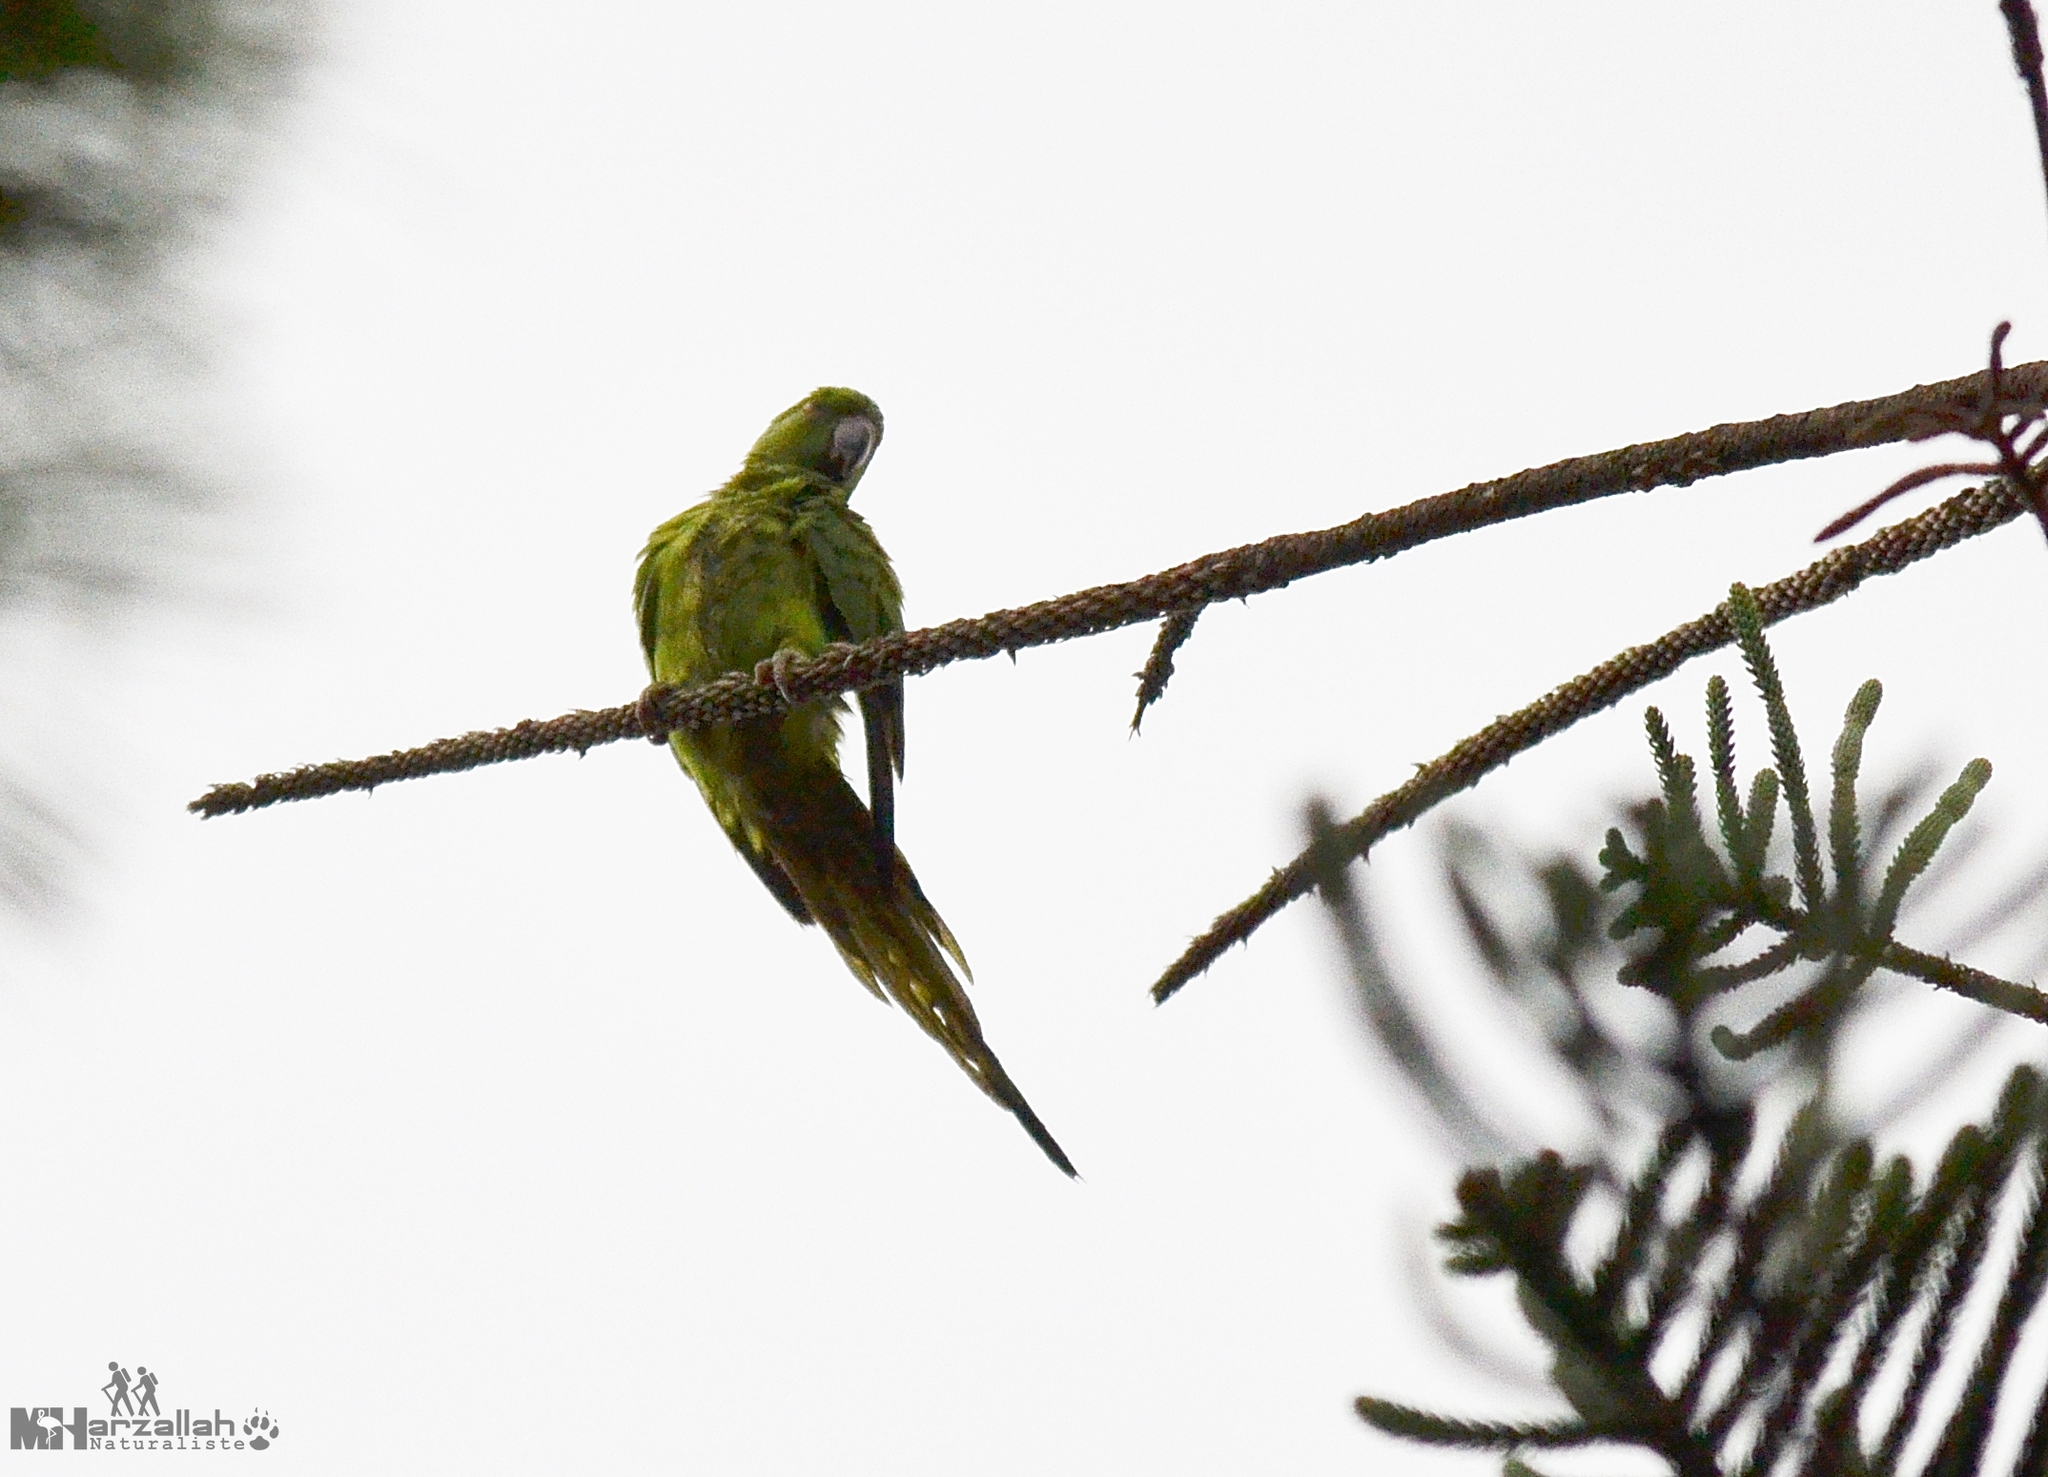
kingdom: Animalia
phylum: Chordata
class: Aves
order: Psittaciformes
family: Psittacidae
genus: Psittacula
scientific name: Psittacula krameri
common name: Rose-ringed parakeet
